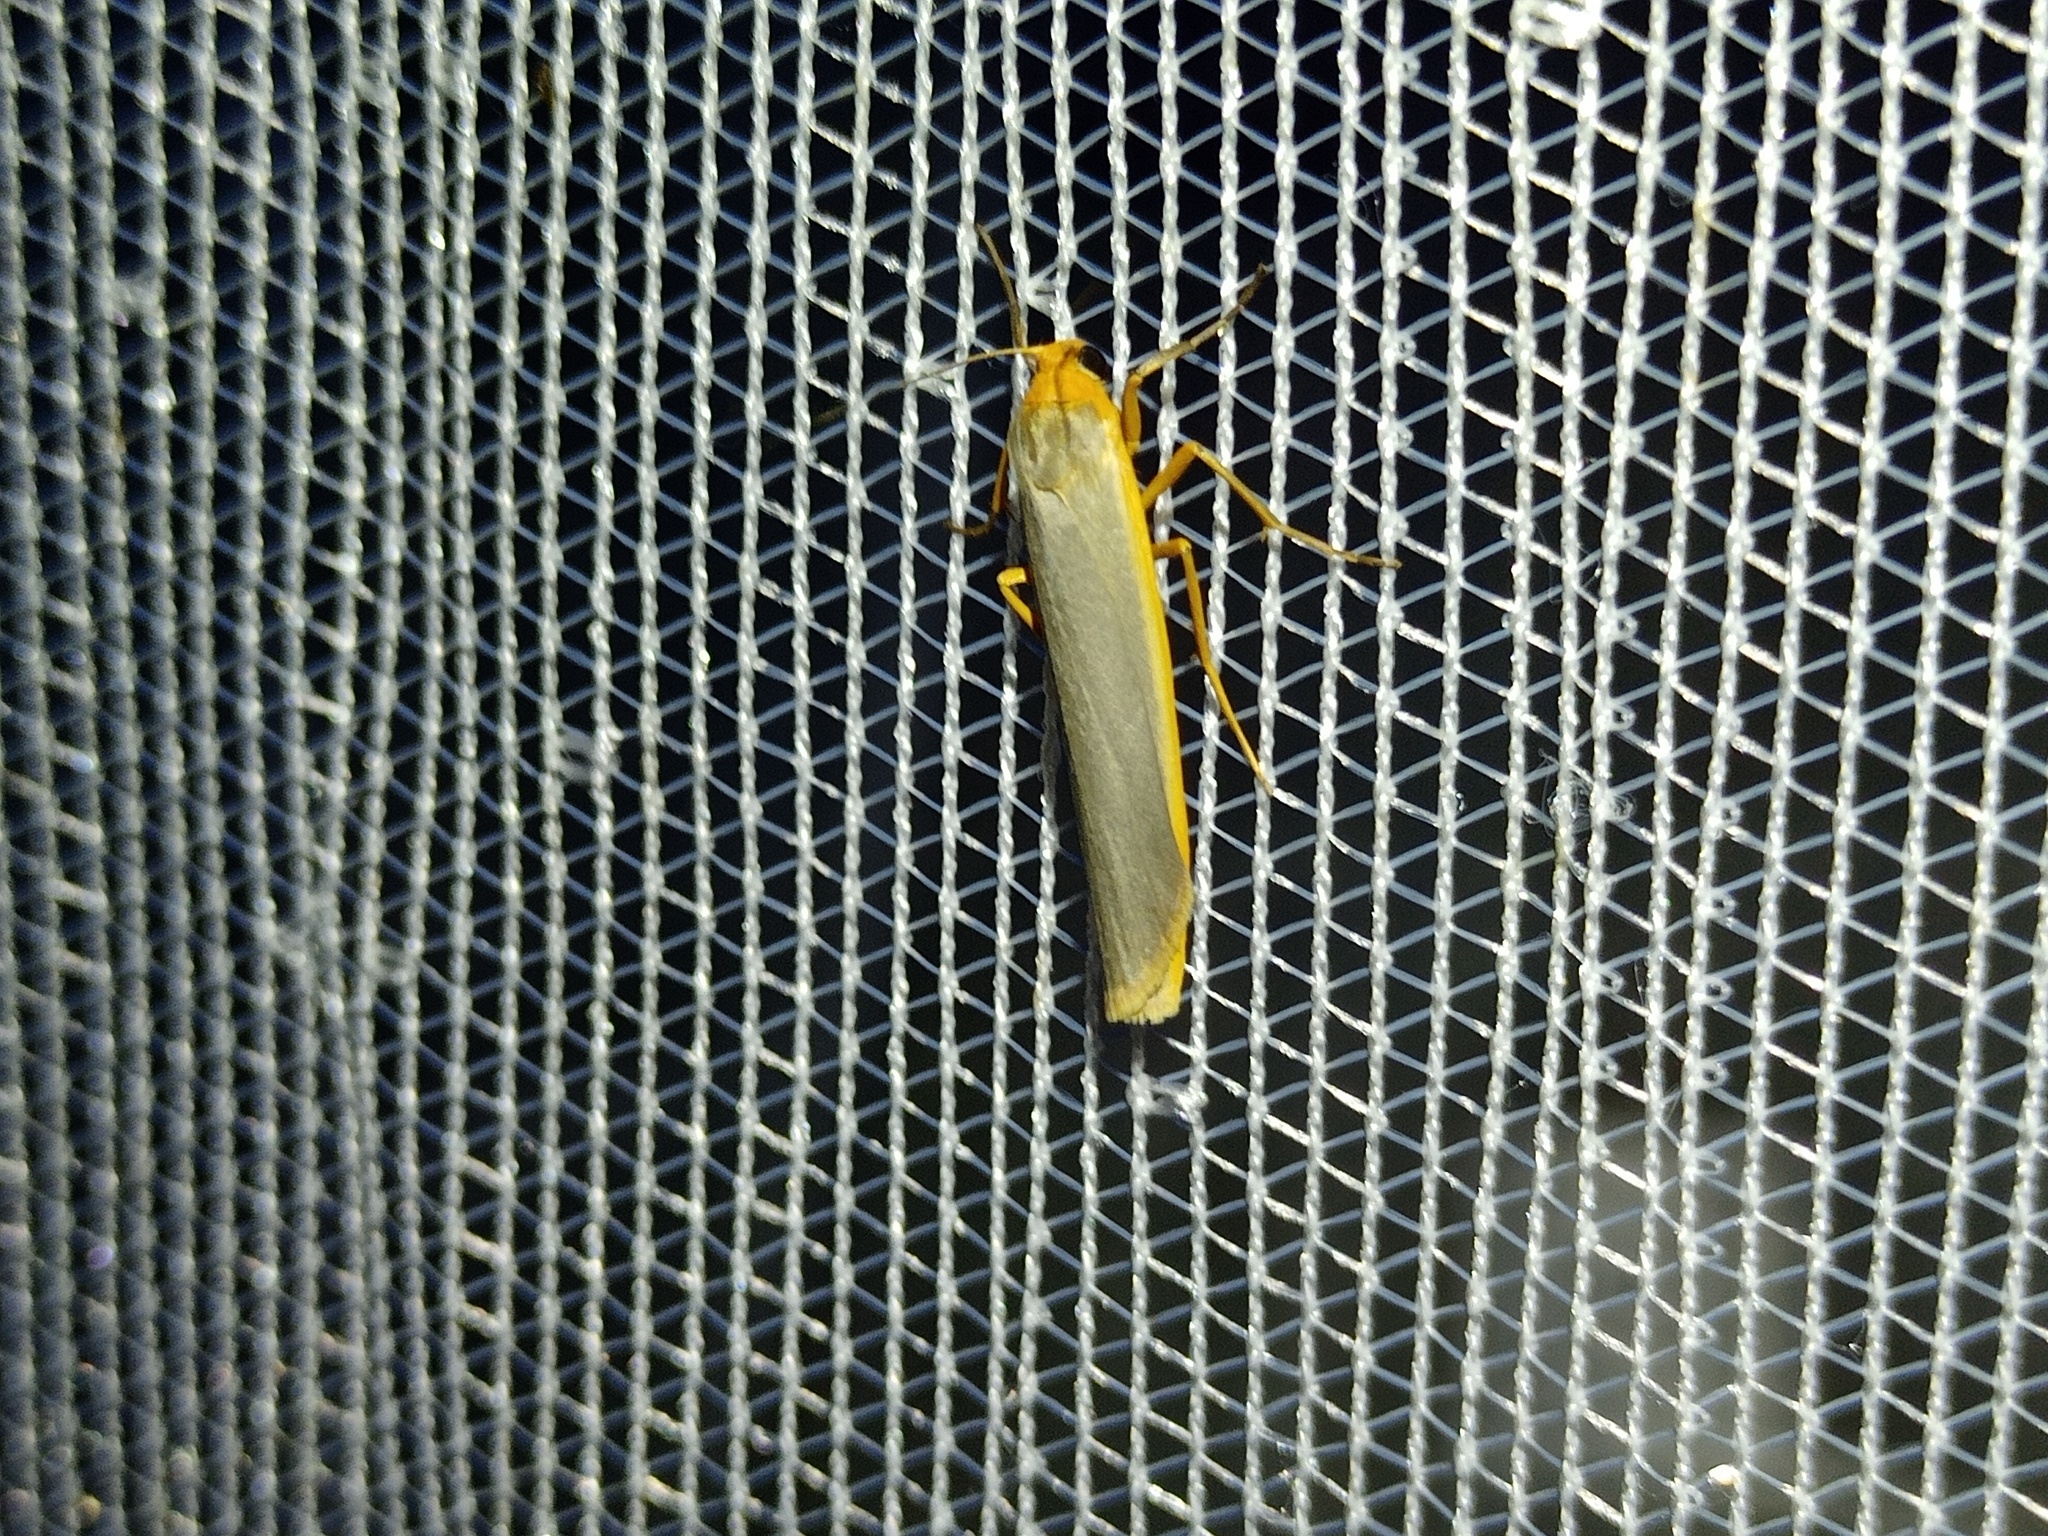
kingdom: Animalia
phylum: Arthropoda
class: Insecta
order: Lepidoptera
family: Erebidae
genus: Manulea
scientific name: Manulea complana
